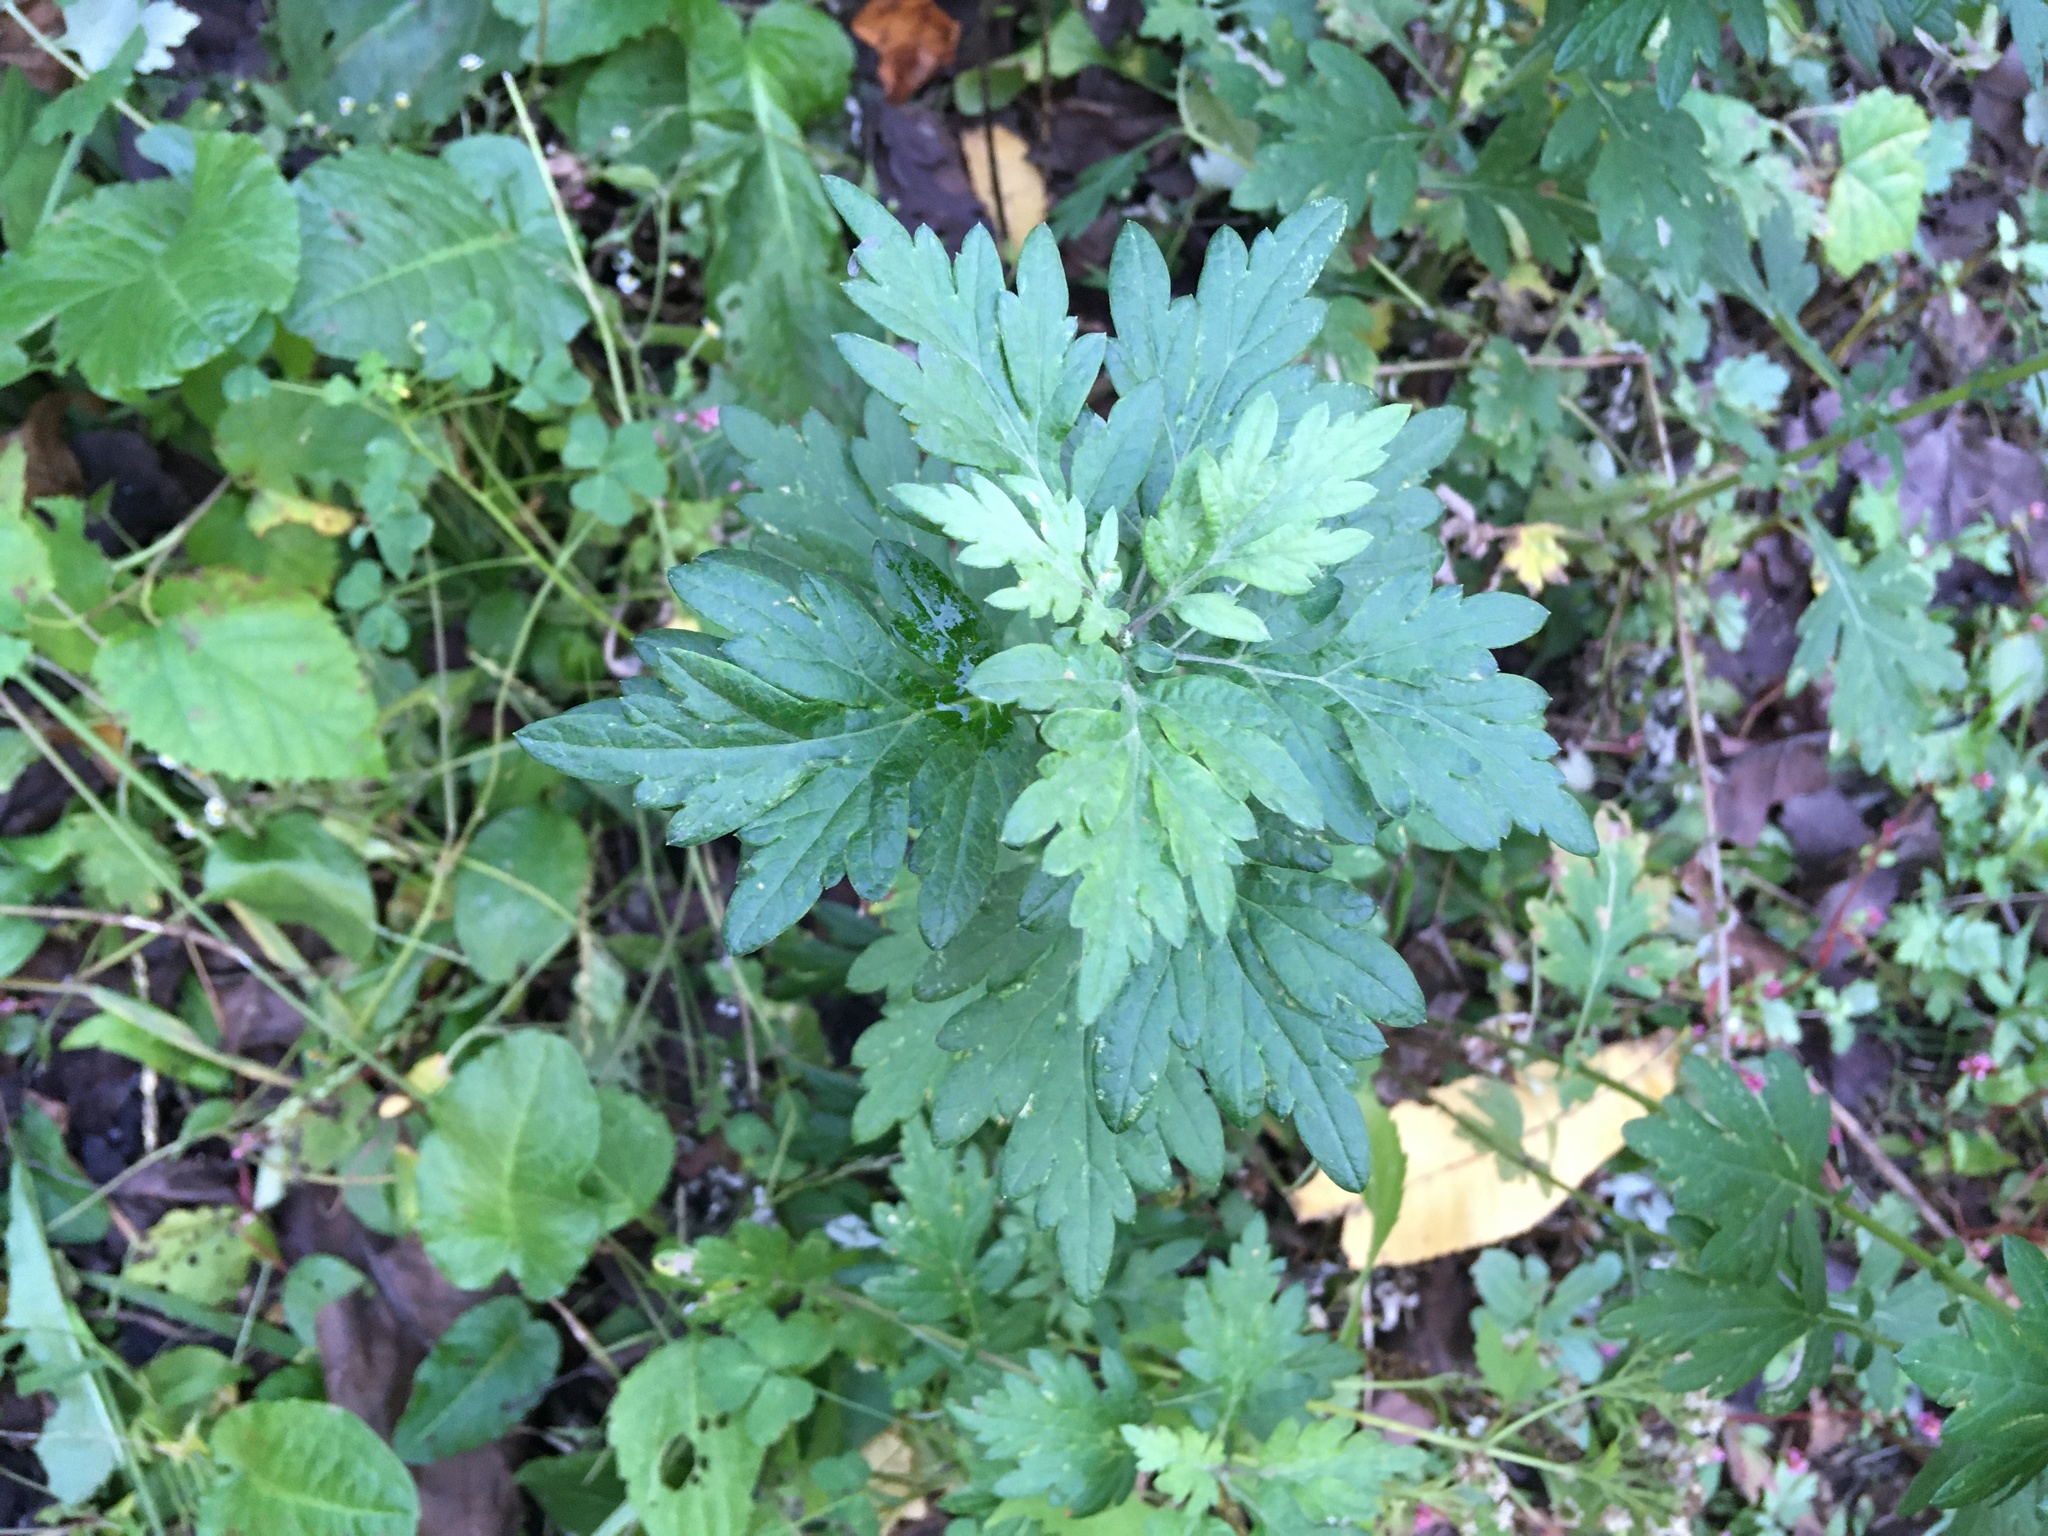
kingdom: Plantae
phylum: Tracheophyta
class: Magnoliopsida
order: Asterales
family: Asteraceae
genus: Artemisia
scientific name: Artemisia vulgaris
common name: Mugwort
